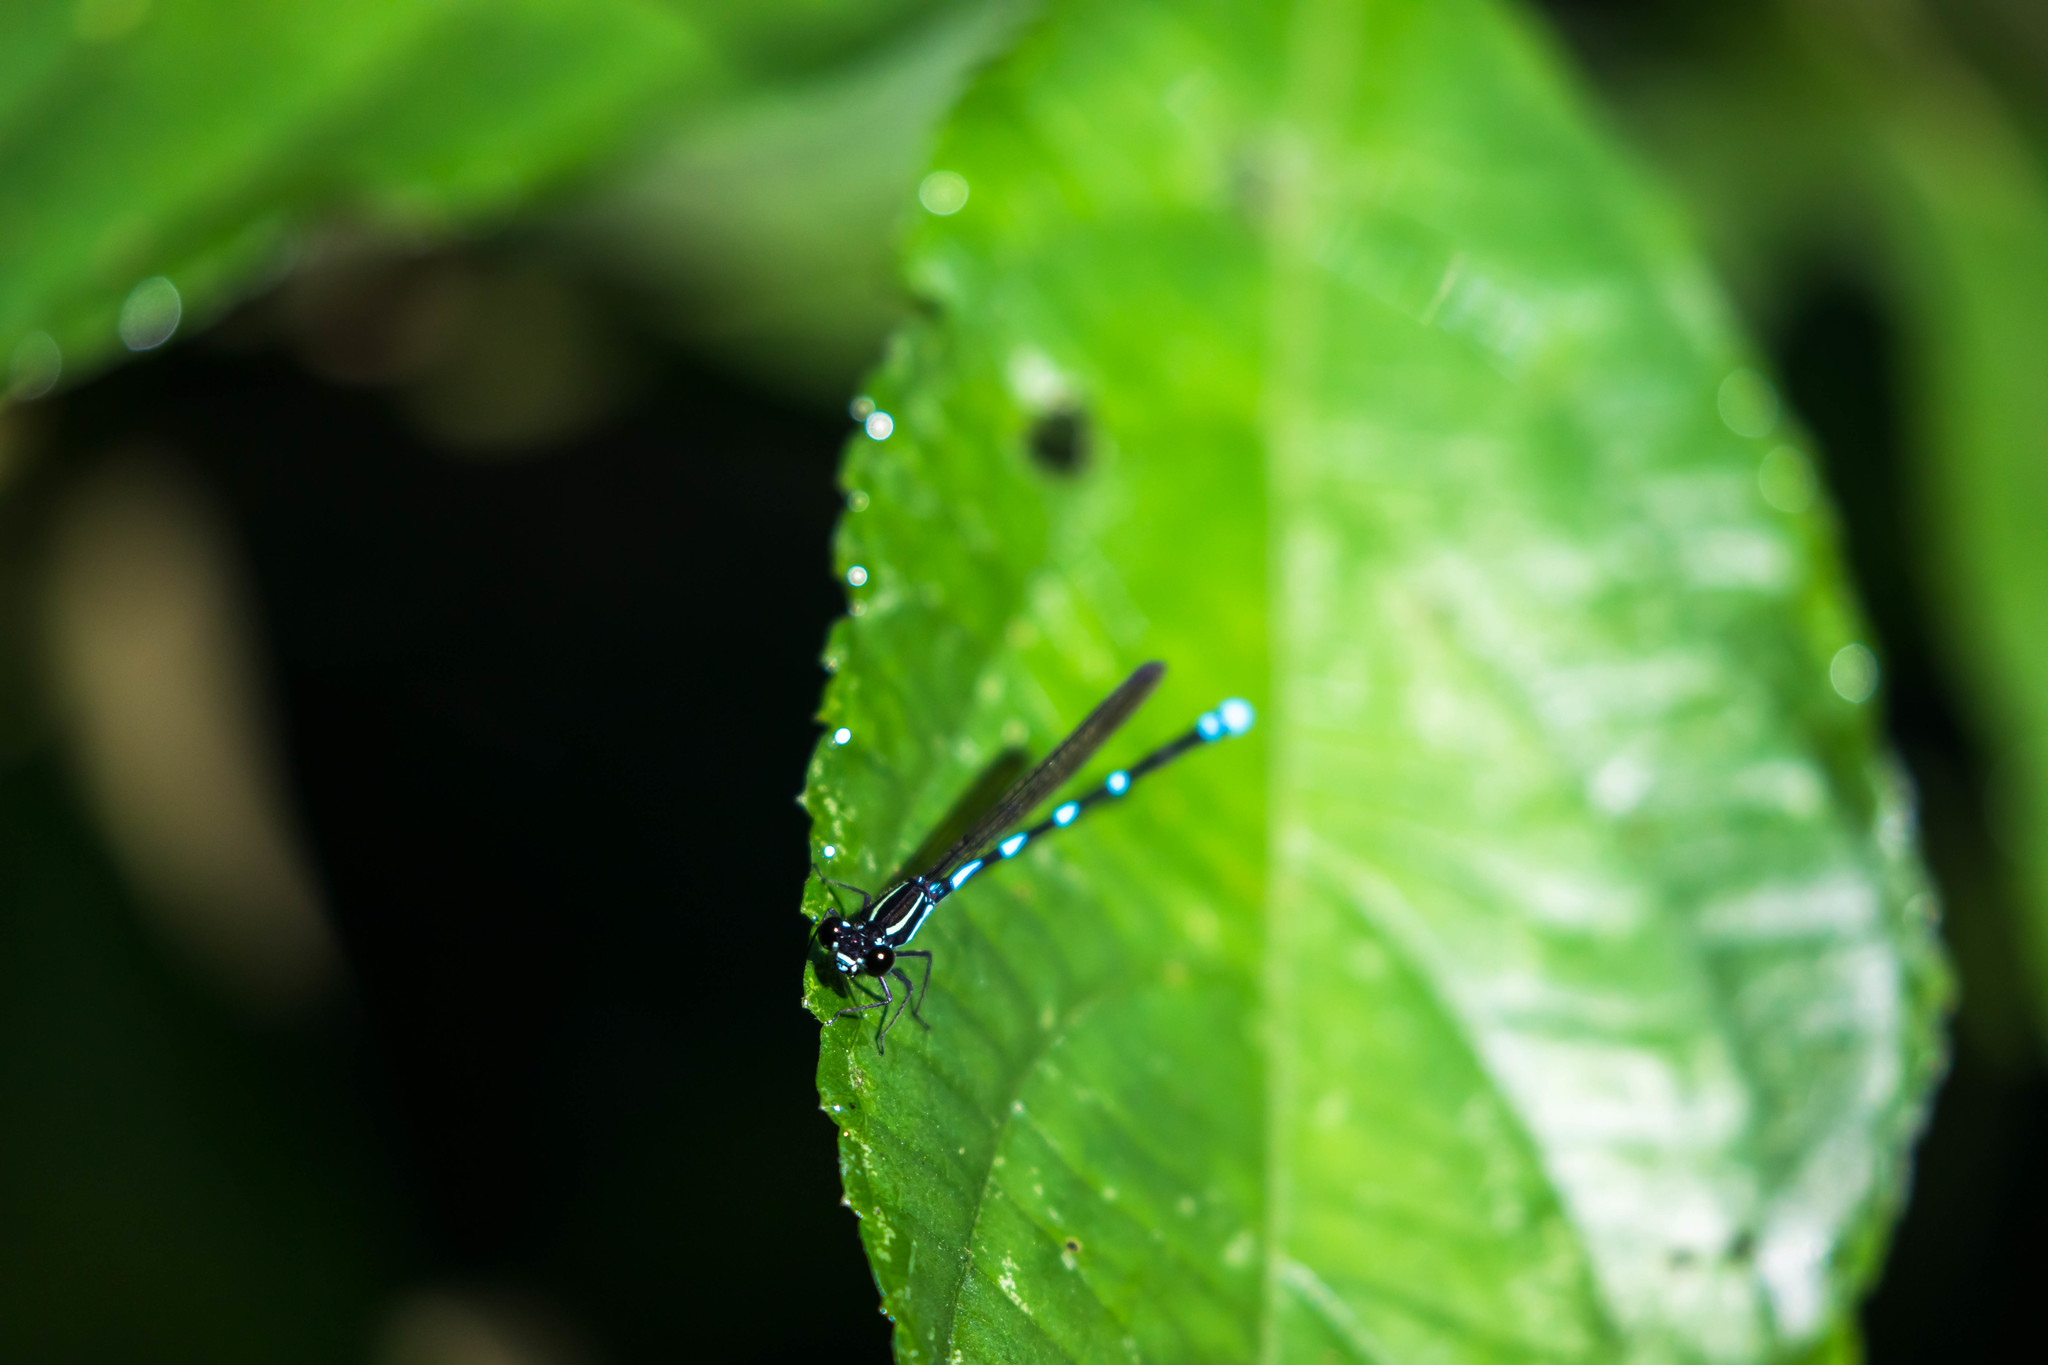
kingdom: Animalia
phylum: Arthropoda
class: Insecta
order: Odonata
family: Coenagrionidae
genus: Argia
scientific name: Argia adamsi
